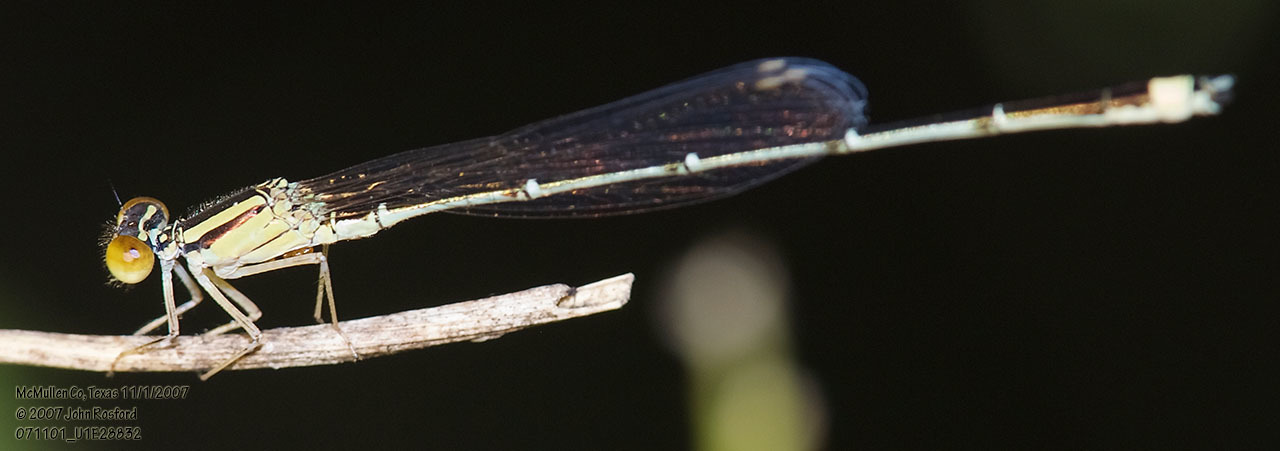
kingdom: Animalia
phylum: Arthropoda
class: Insecta
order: Odonata
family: Coenagrionidae
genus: Enallagma
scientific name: Enallagma signatum
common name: Orange bluet
